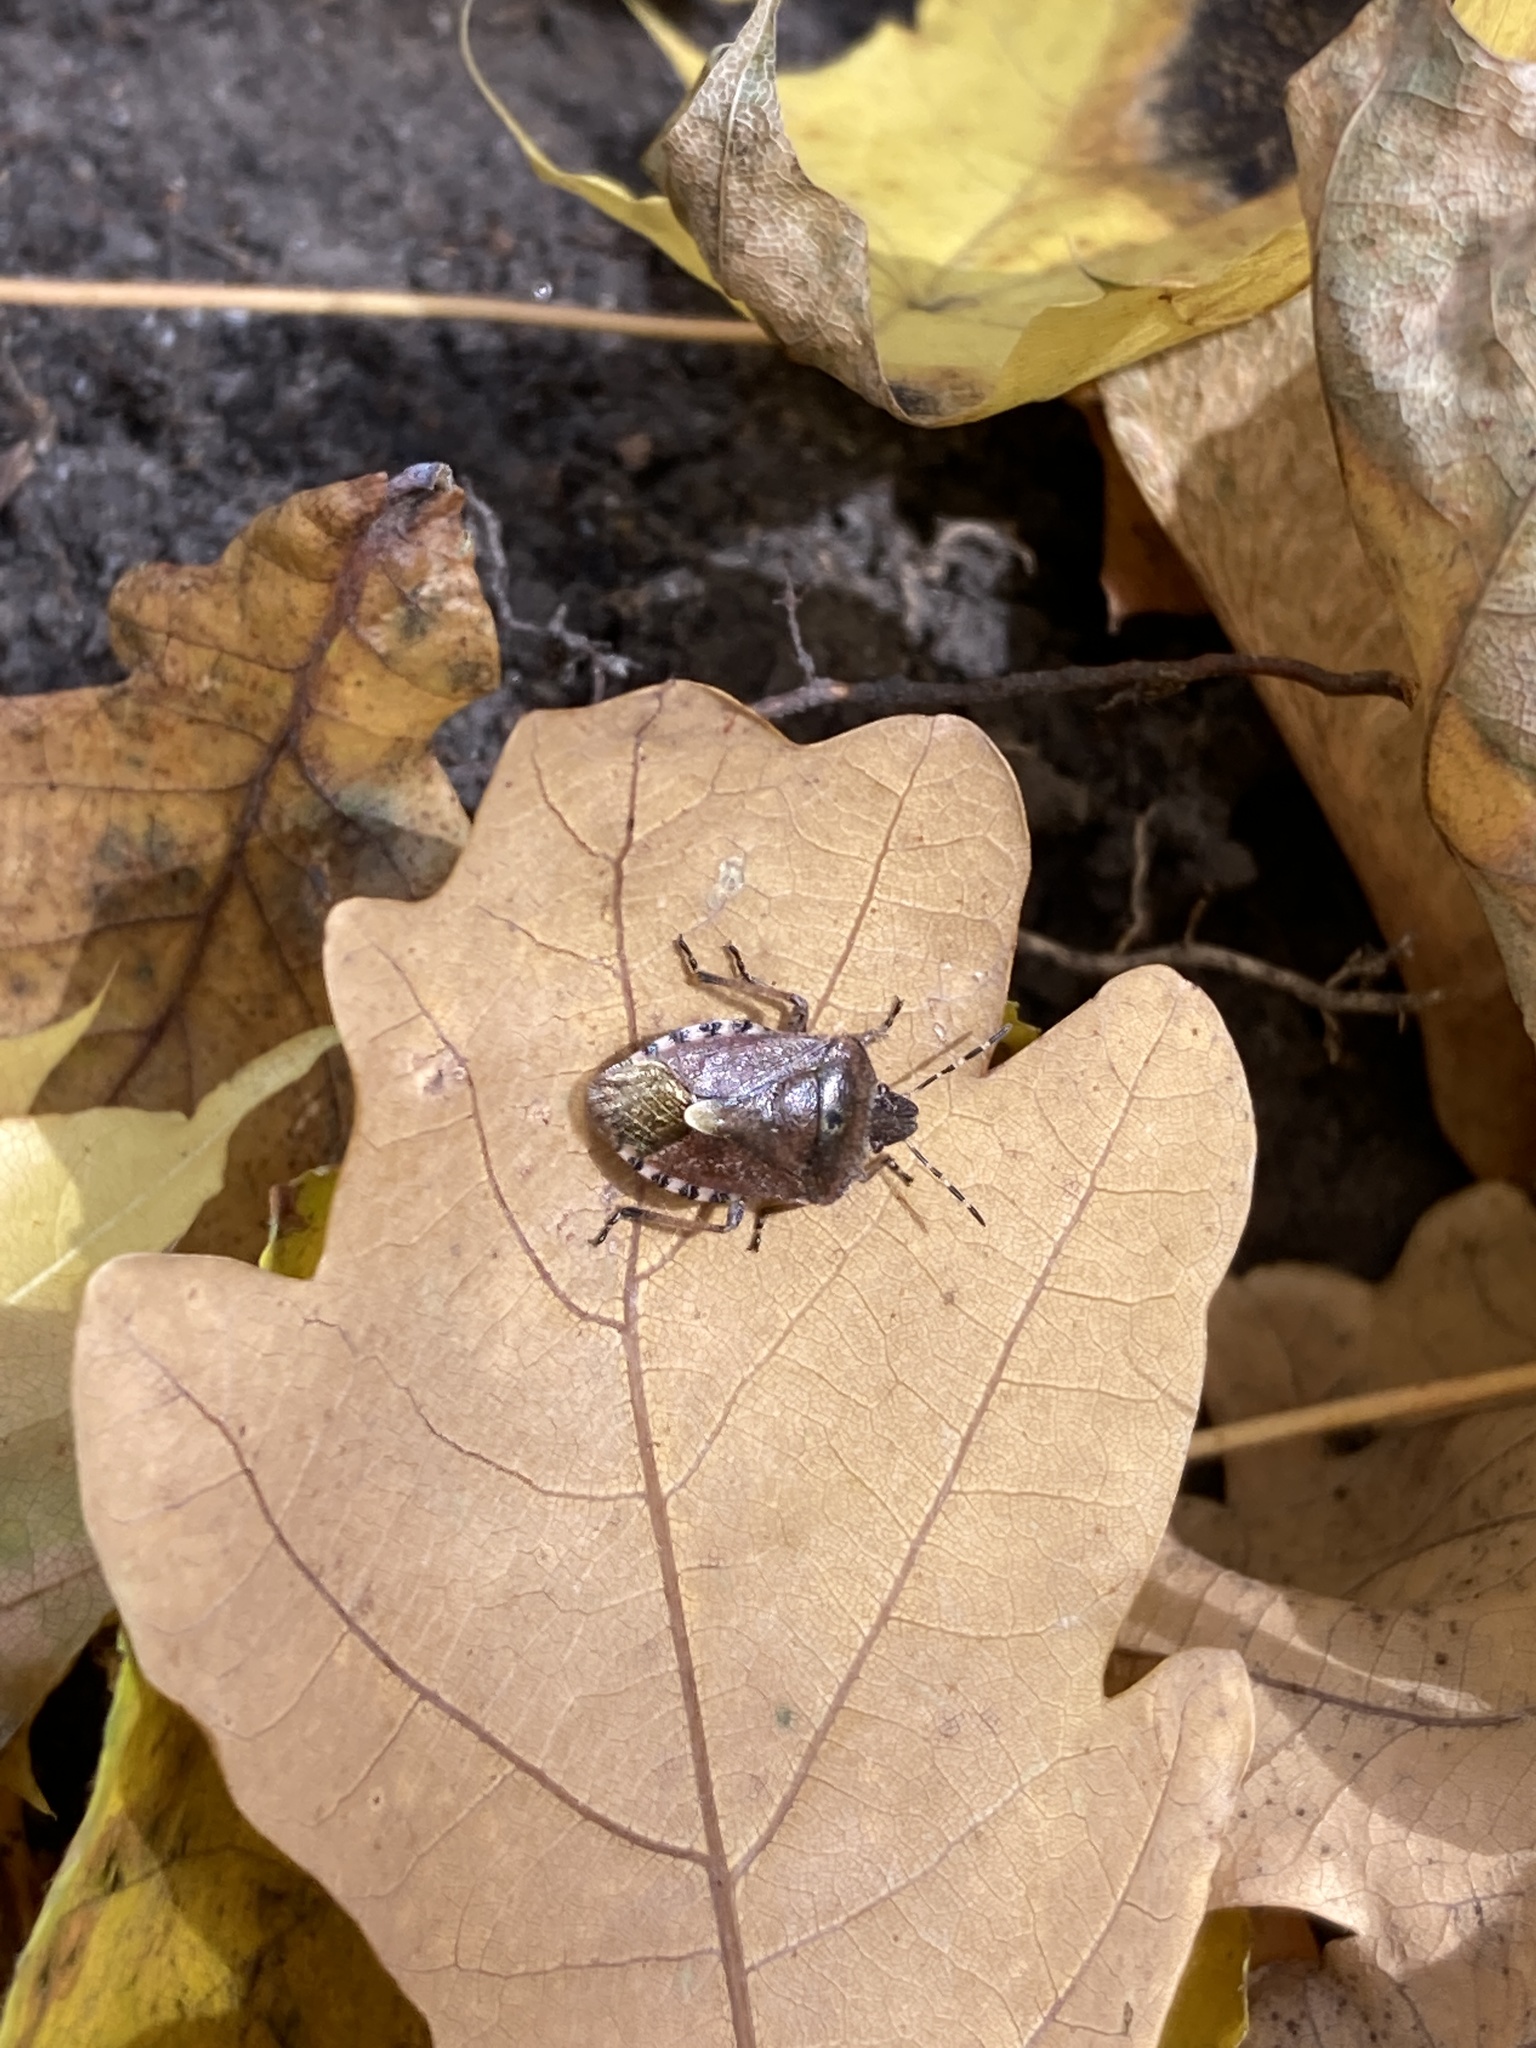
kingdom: Animalia
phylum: Arthropoda
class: Insecta
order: Hemiptera
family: Pentatomidae
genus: Dolycoris
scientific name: Dolycoris baccarum
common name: Sloe bug
